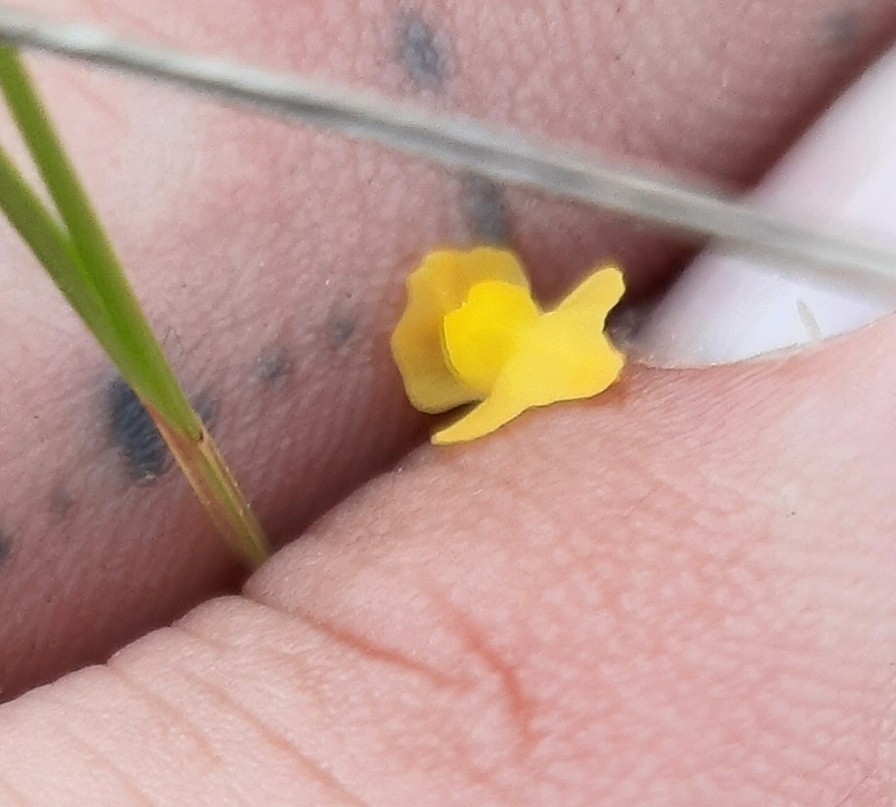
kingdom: Plantae
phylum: Tracheophyta
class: Magnoliopsida
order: Lamiales
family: Lentibulariaceae
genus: Utricularia
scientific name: Utricularia subulata
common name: Tiny bladderwort
